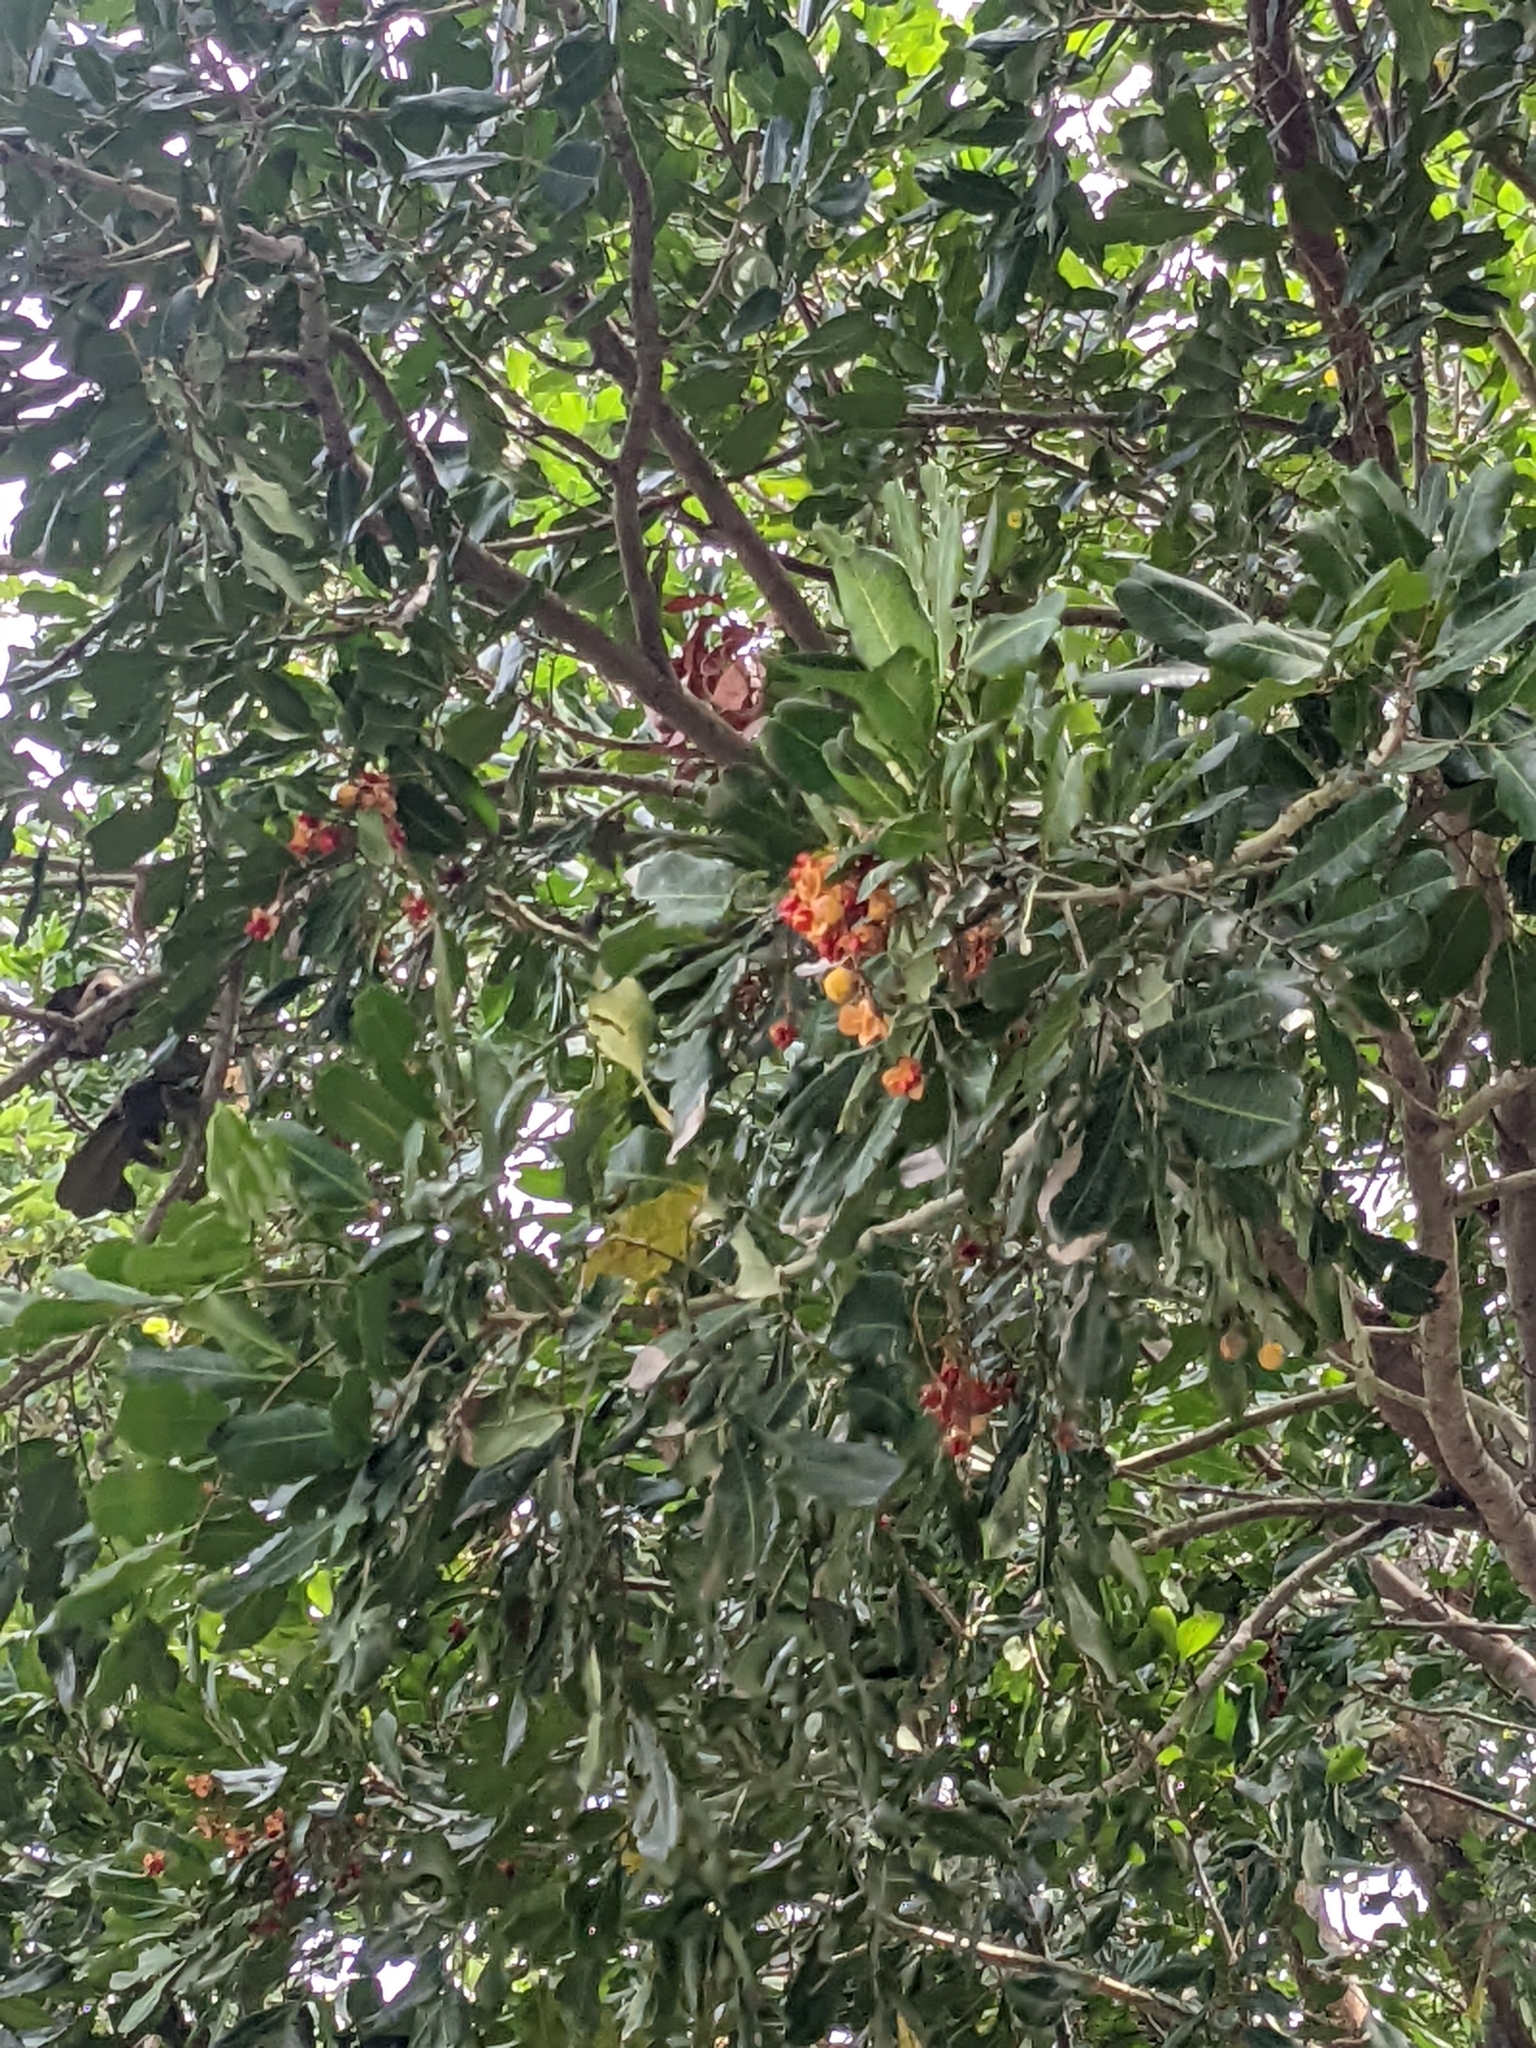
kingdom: Plantae
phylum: Tracheophyta
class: Magnoliopsida
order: Sapindales
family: Sapindaceae
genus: Cupaniopsis
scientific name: Cupaniopsis anacardioides
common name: Carrotwood
